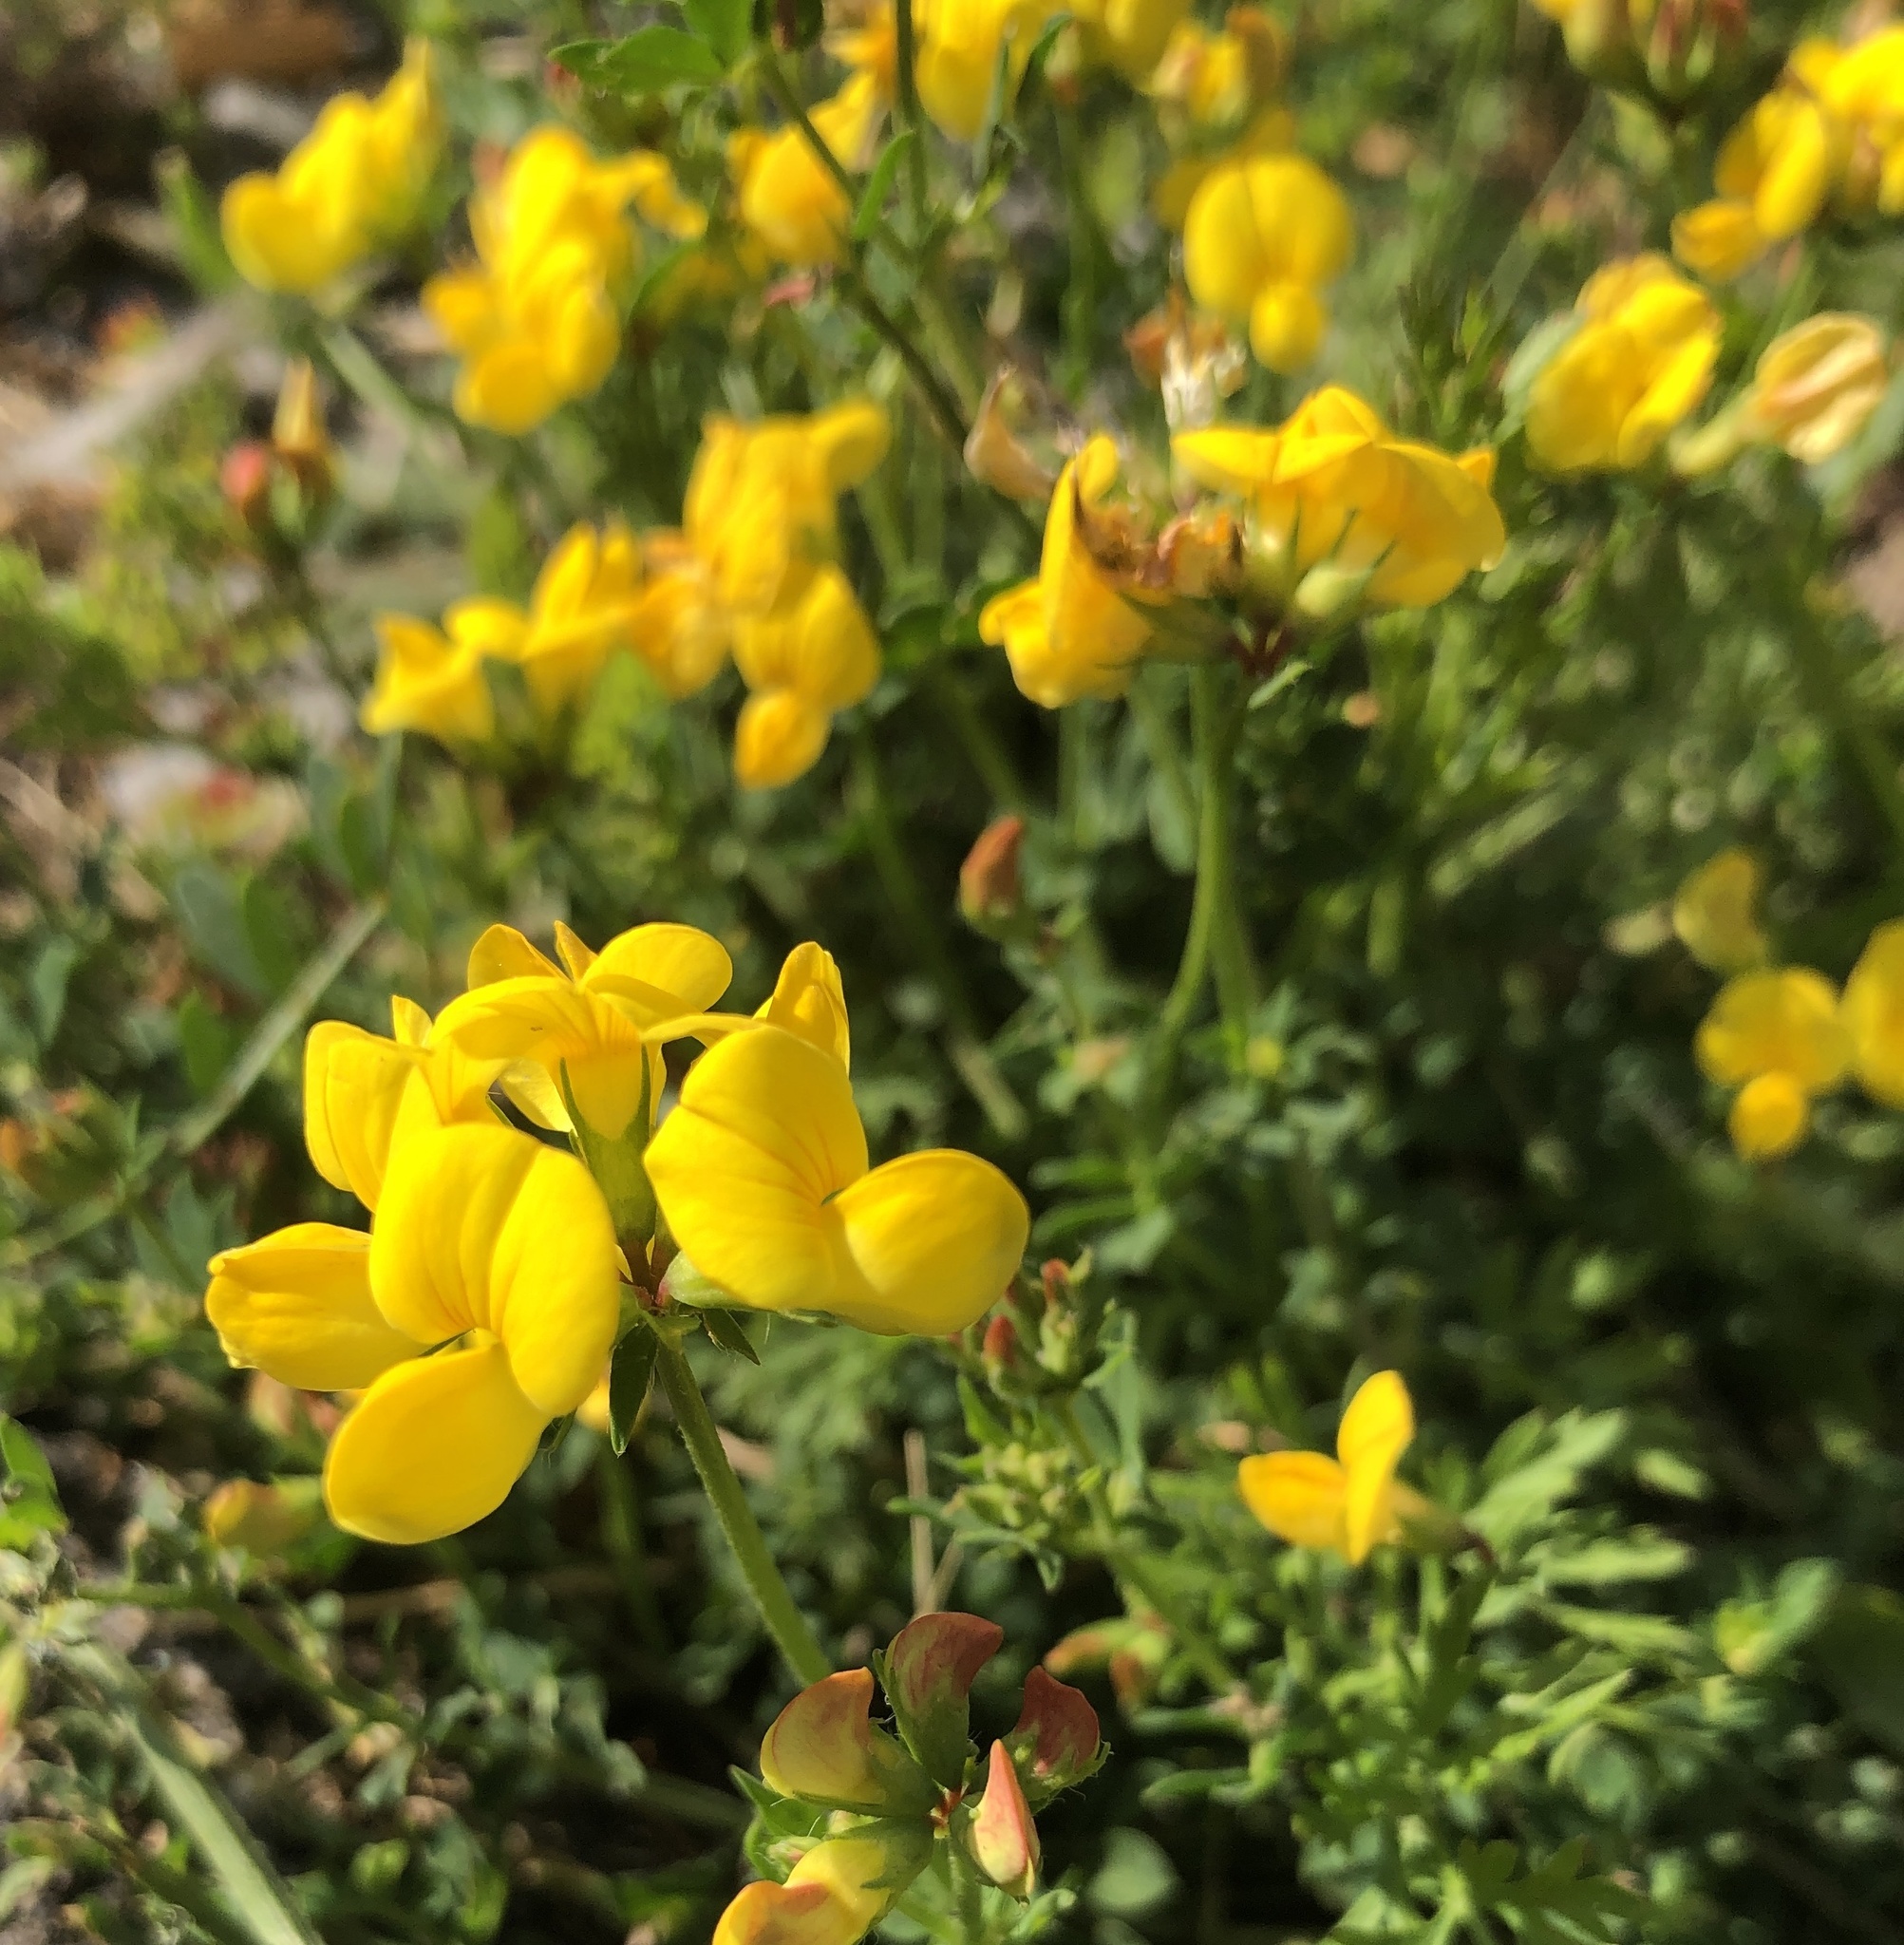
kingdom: Plantae
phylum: Tracheophyta
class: Magnoliopsida
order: Fabales
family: Fabaceae
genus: Lotus
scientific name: Lotus corniculatus
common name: Common bird's-foot-trefoil
